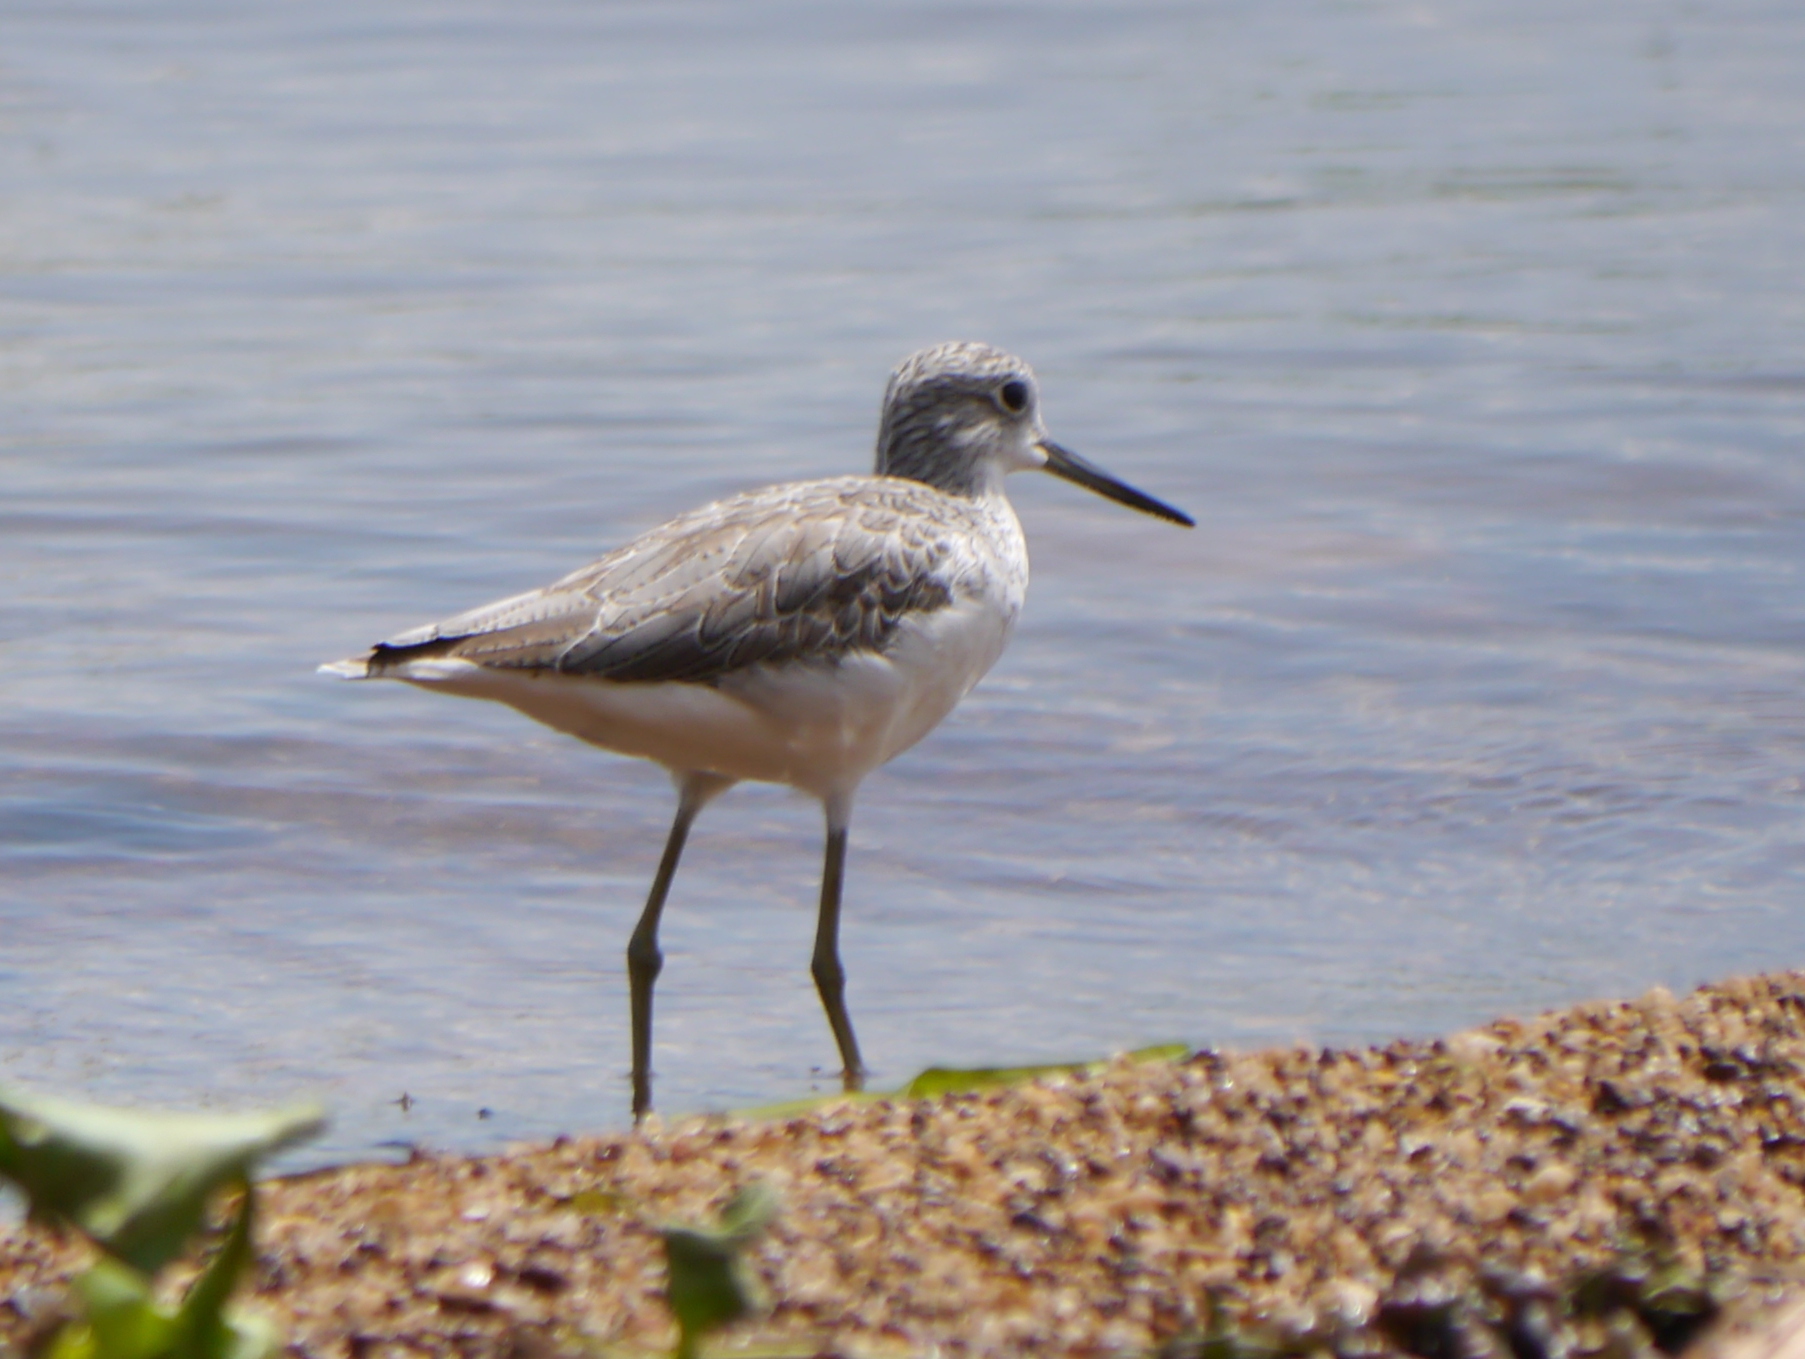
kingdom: Animalia
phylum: Chordata
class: Aves
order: Charadriiformes
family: Scolopacidae
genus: Tringa
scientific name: Tringa nebularia
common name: Common greenshank
